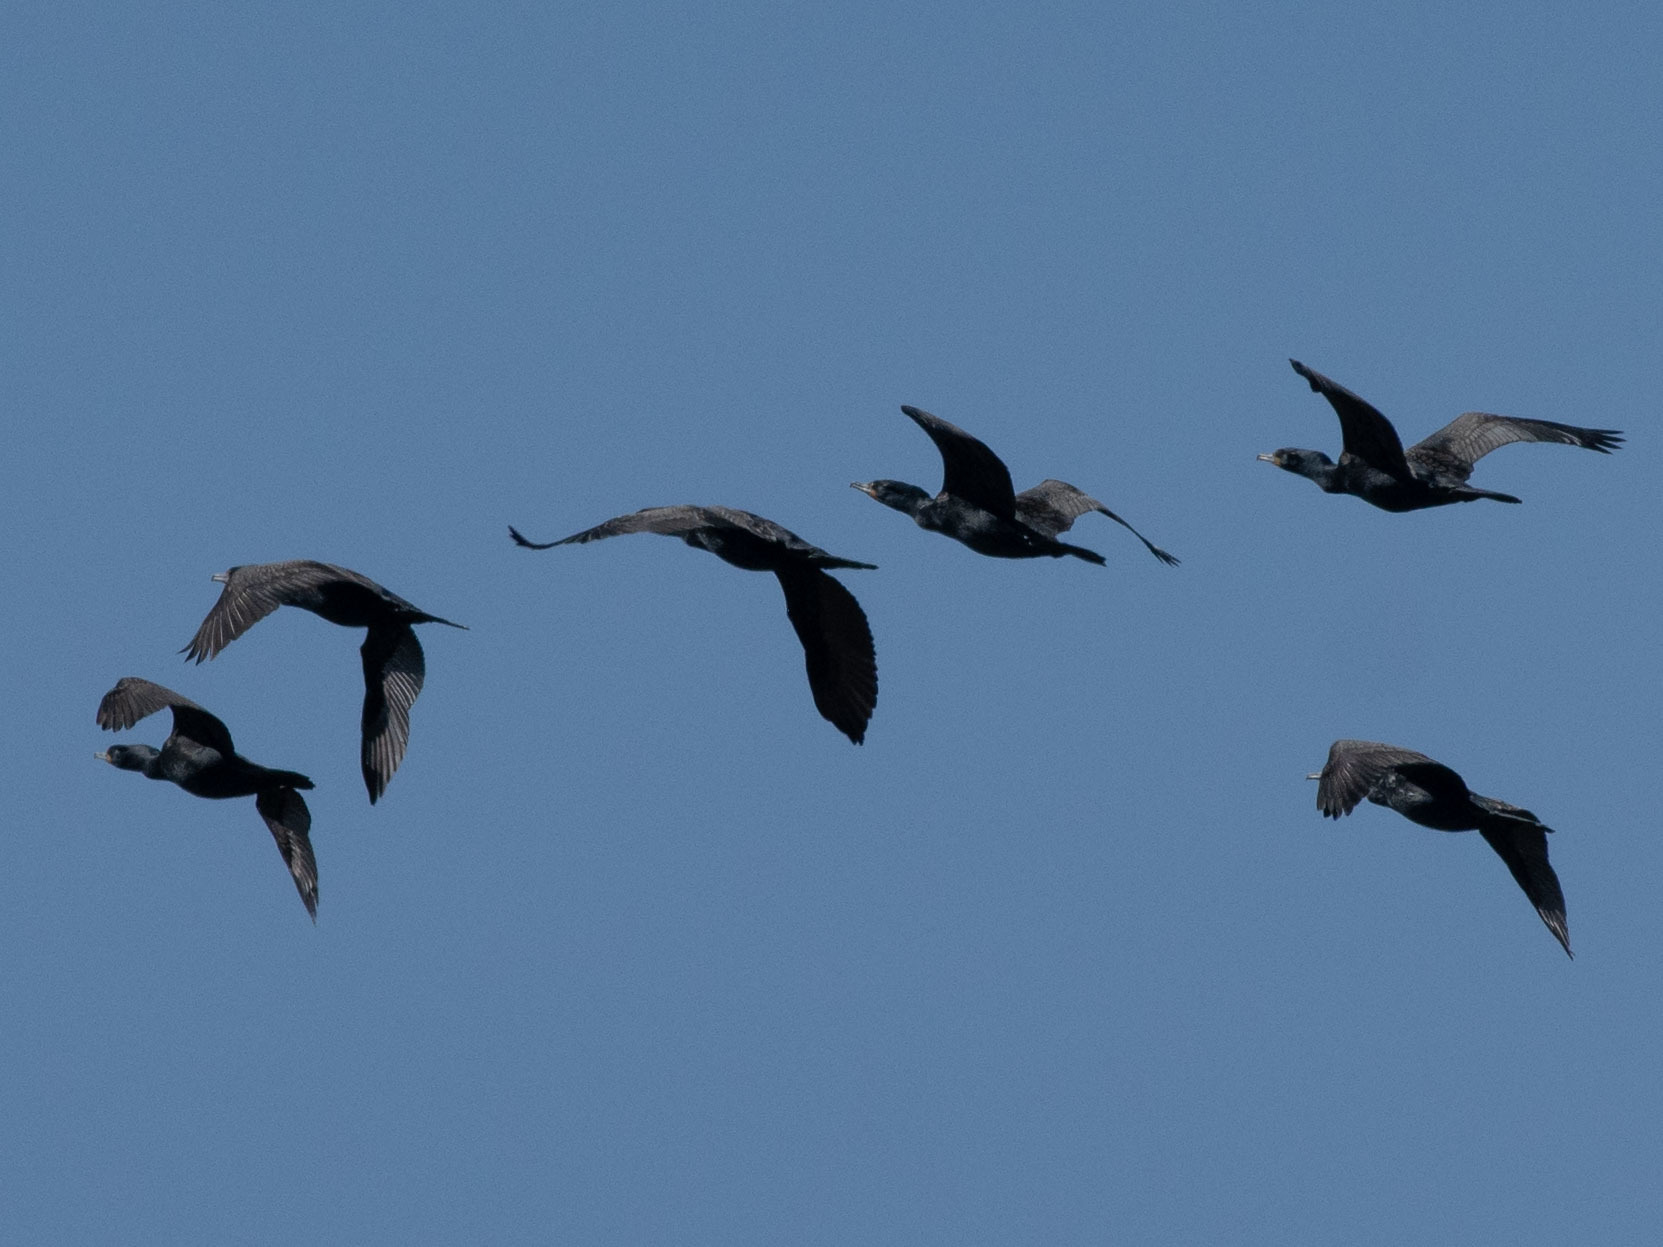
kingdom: Animalia
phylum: Chordata
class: Aves
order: Suliformes
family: Phalacrocoracidae
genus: Phalacrocorax
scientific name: Phalacrocorax auritus
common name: Double-crested cormorant
